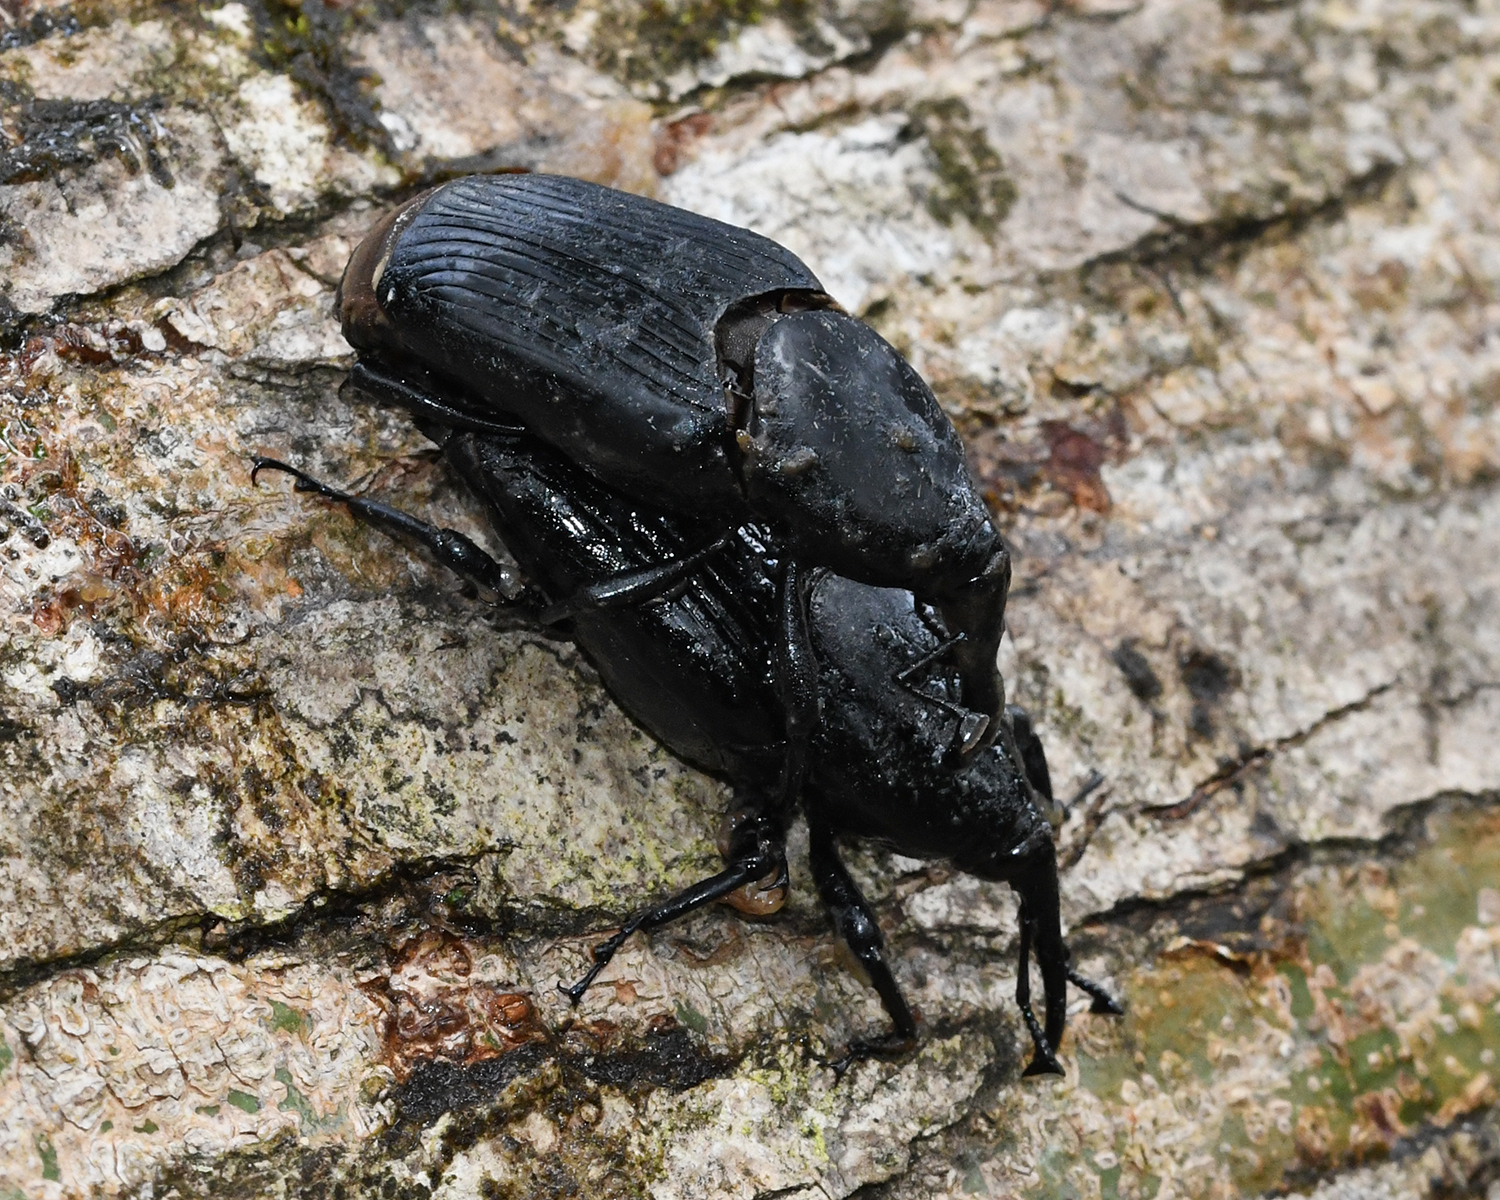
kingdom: Animalia
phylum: Arthropoda
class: Insecta
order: Coleoptera
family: Dryophthoridae
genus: Rhynchophorus
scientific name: Rhynchophorus palmarum
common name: Palm weevil
